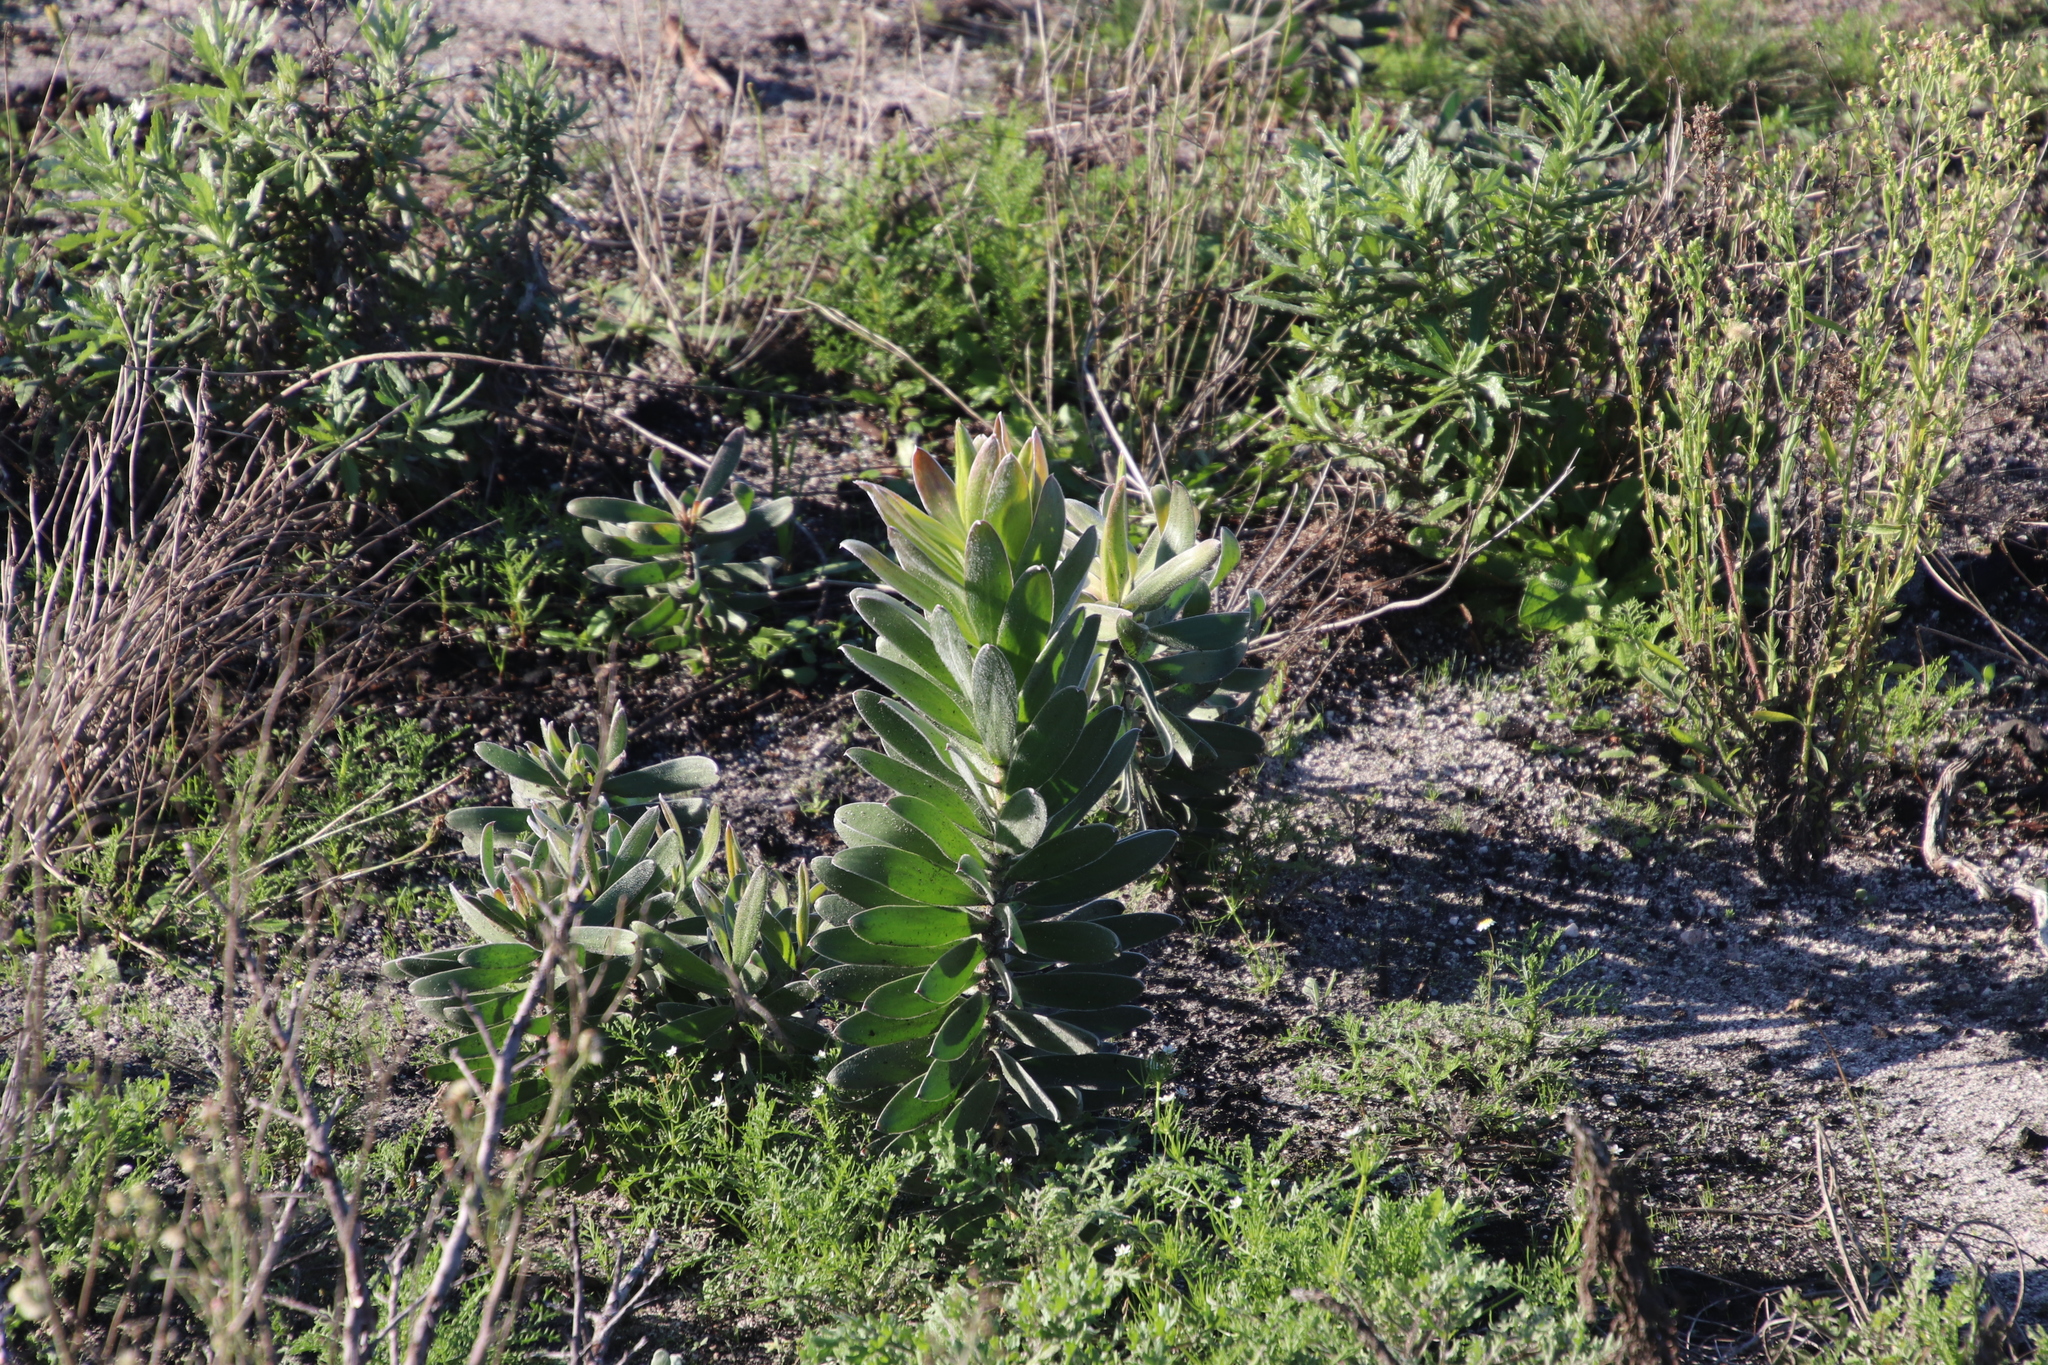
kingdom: Plantae
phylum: Tracheophyta
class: Magnoliopsida
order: Proteales
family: Proteaceae
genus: Leucadendron
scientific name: Leucadendron laureolum
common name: Golden sunshinebush
